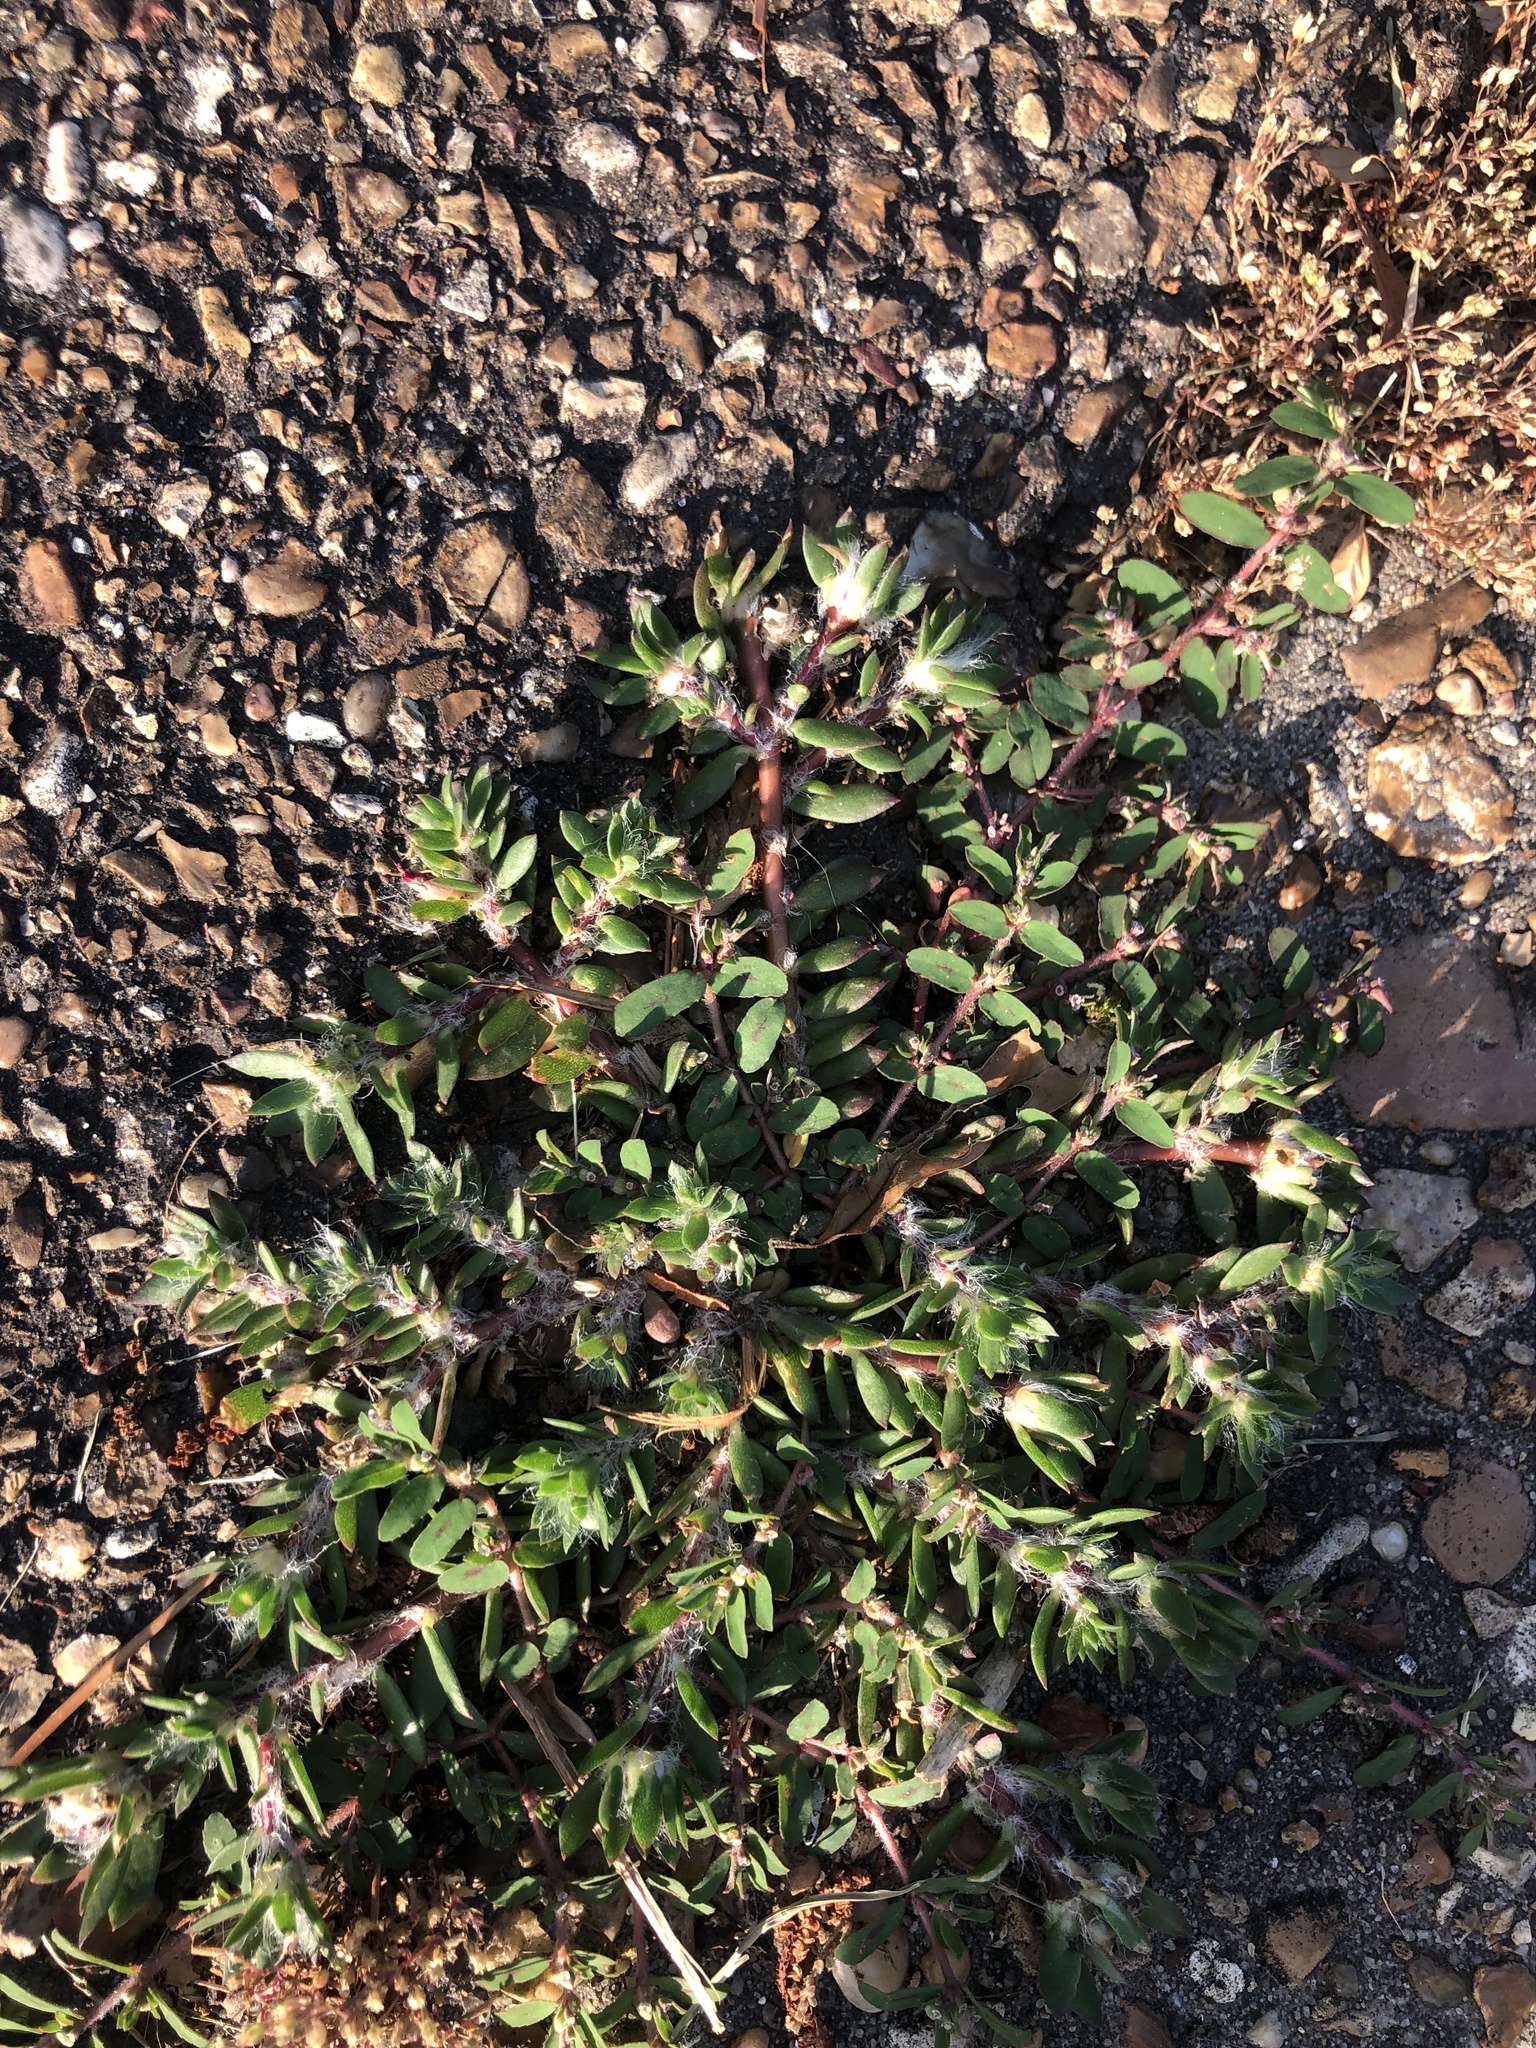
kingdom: Plantae
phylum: Tracheophyta
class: Magnoliopsida
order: Caryophyllales
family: Portulacaceae
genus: Portulaca
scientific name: Portulaca amilis
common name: Paraguayan purslane
